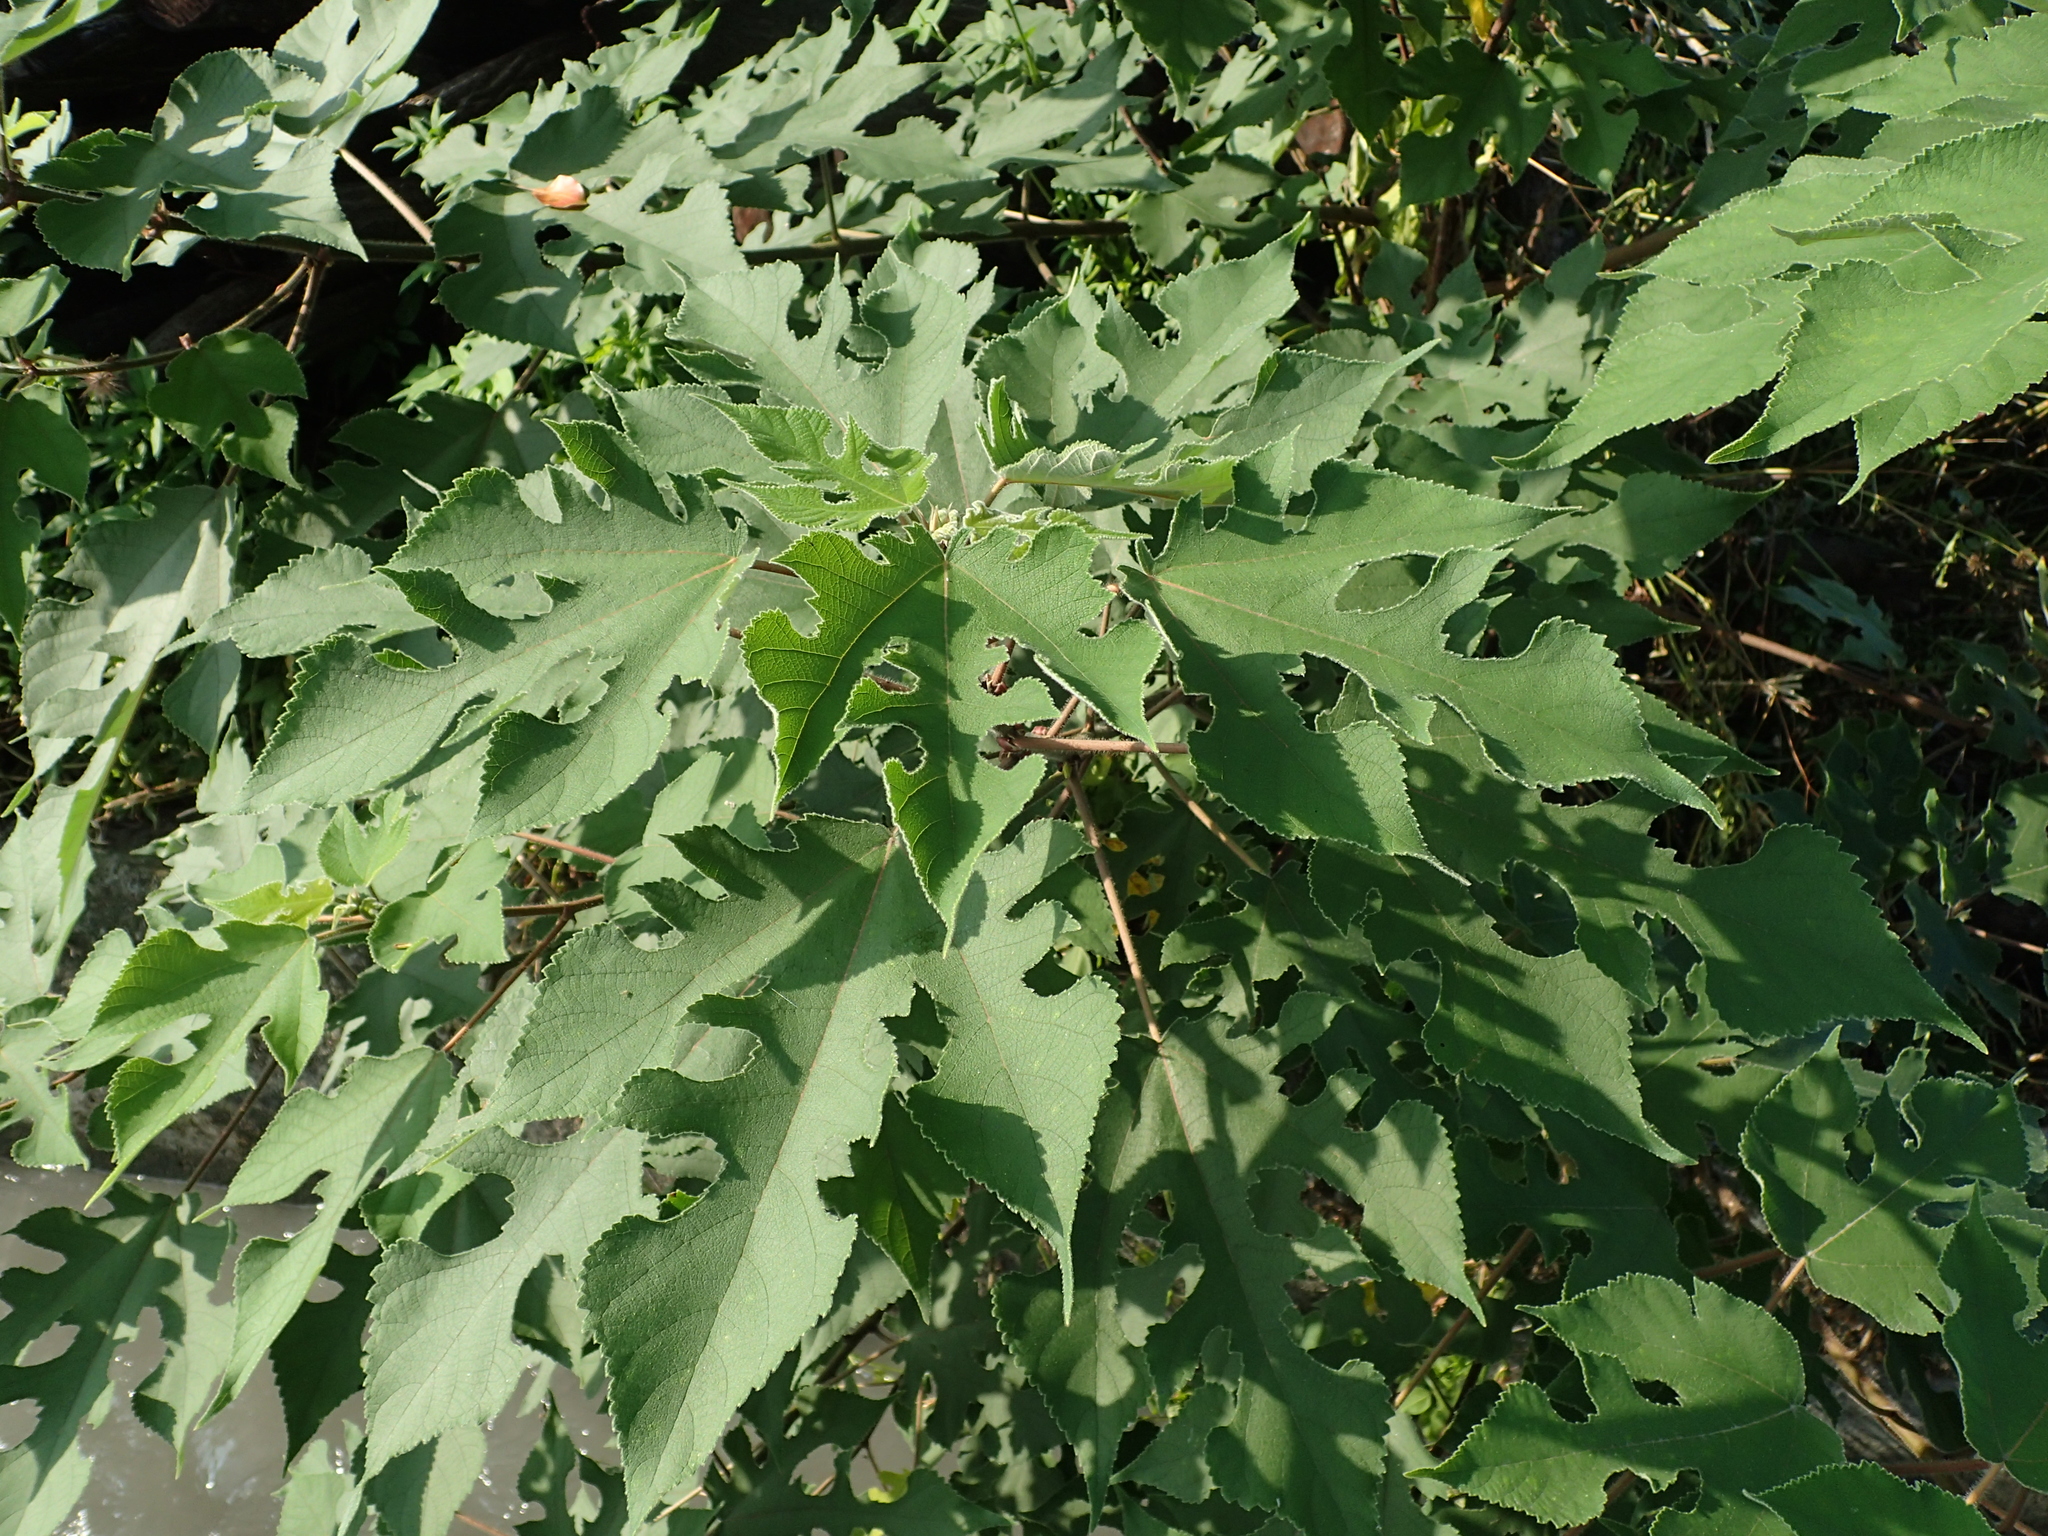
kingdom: Plantae
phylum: Tracheophyta
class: Magnoliopsida
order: Rosales
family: Moraceae
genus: Broussonetia
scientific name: Broussonetia papyrifera
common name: Paper mulberry
